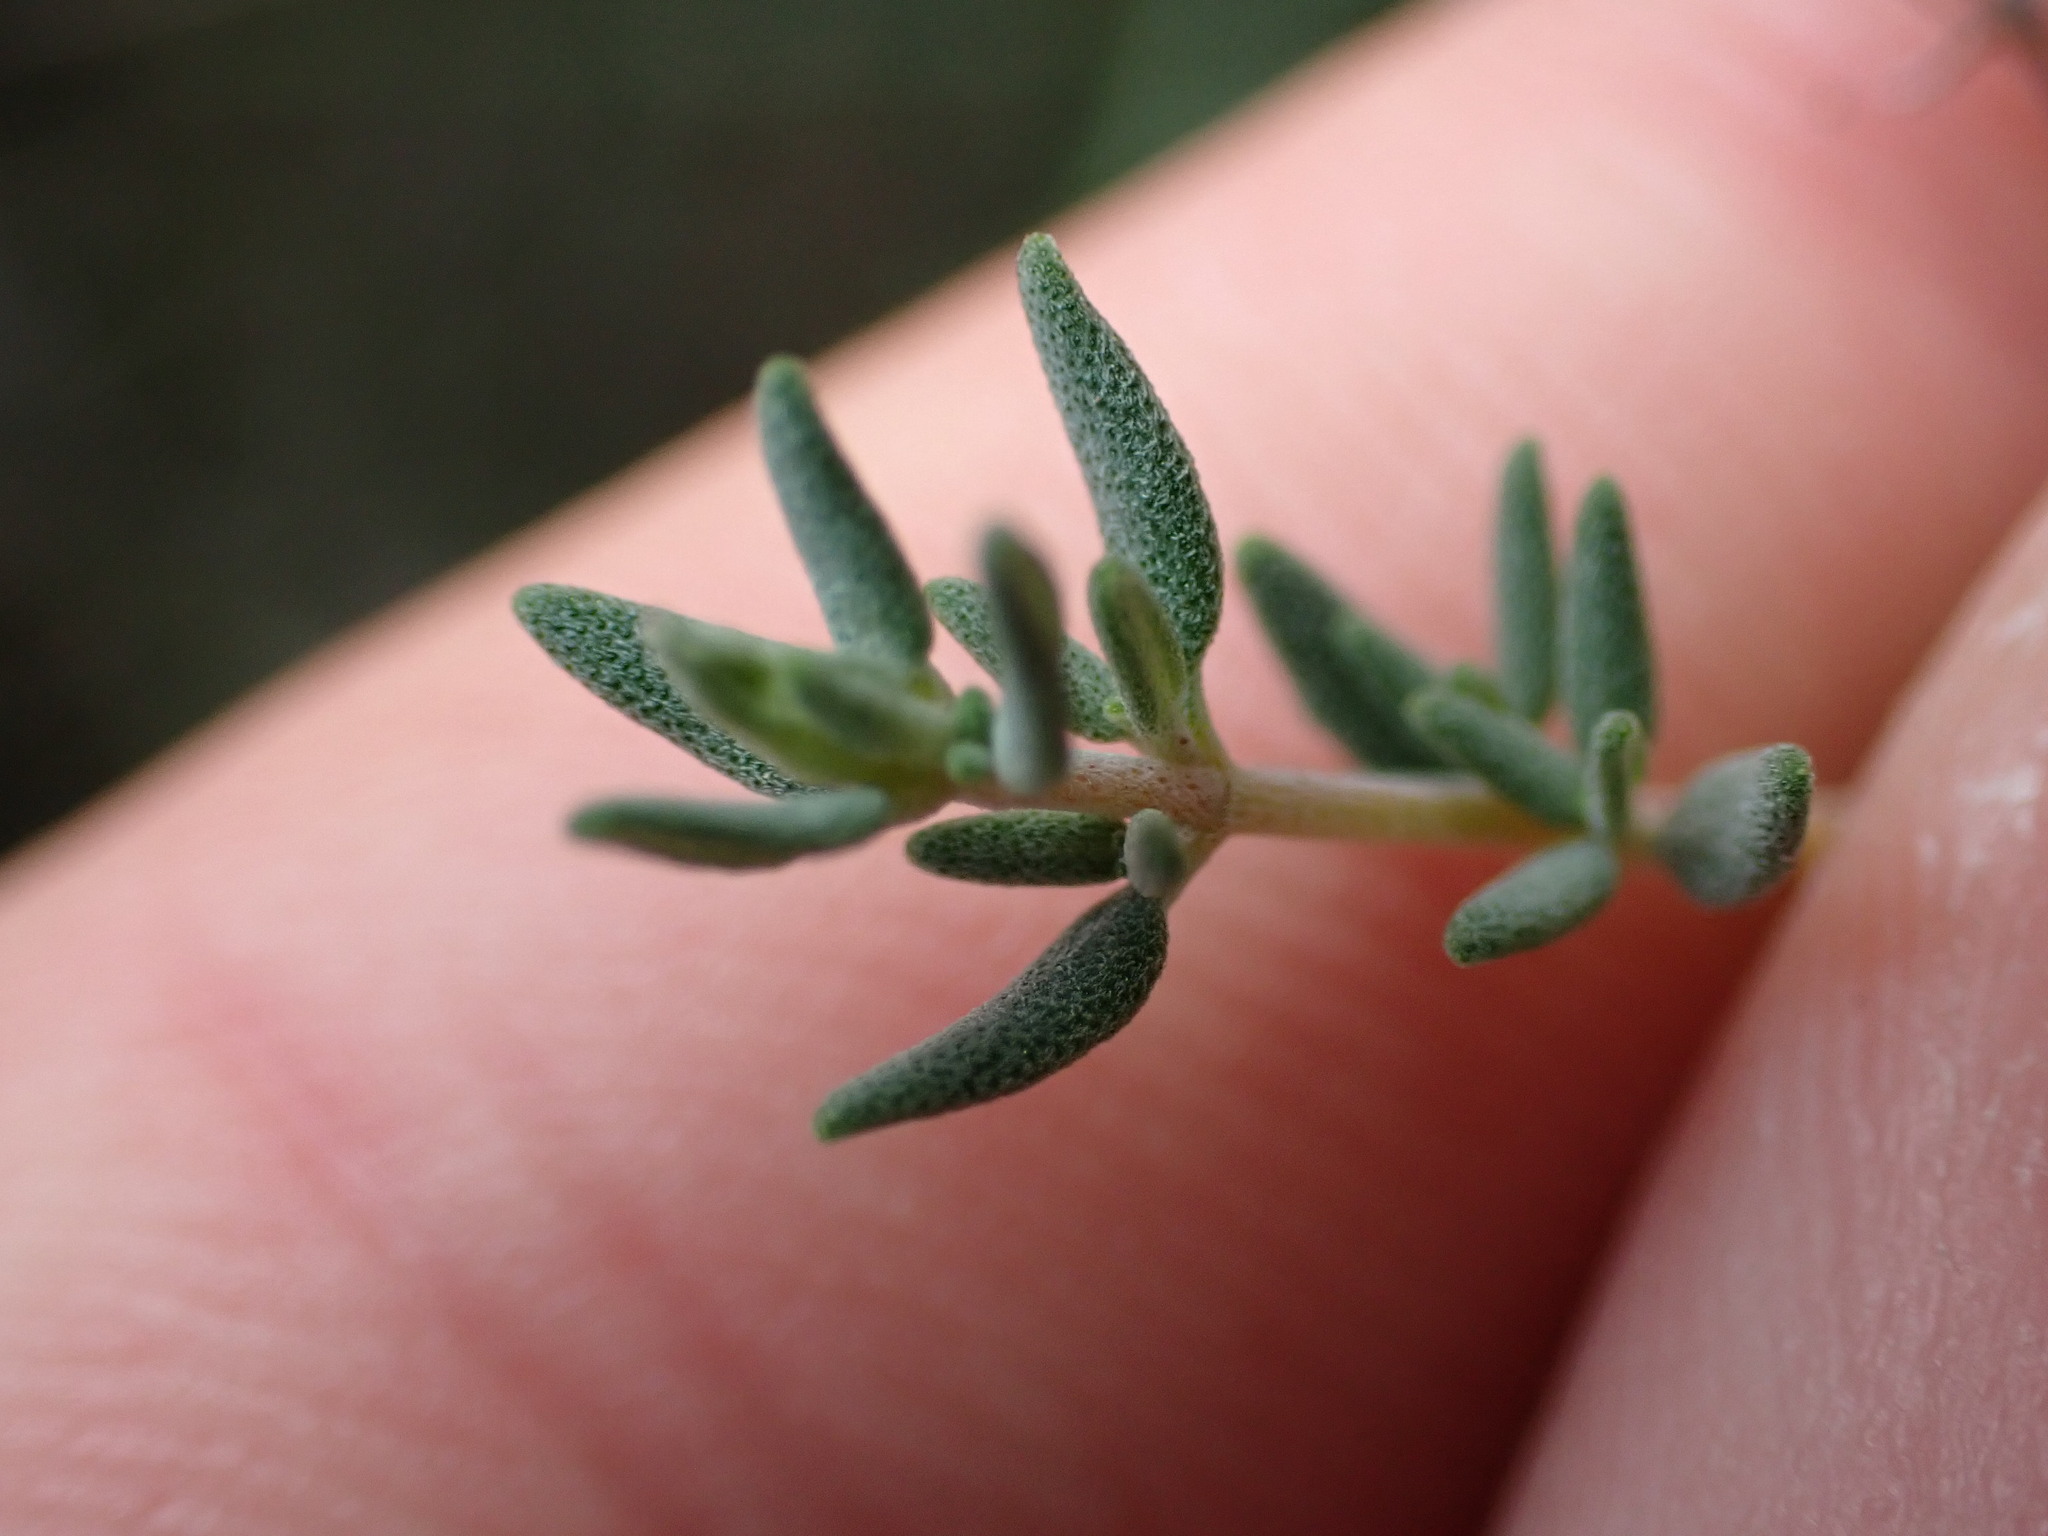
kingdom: Plantae
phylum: Tracheophyta
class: Magnoliopsida
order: Lamiales
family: Lamiaceae
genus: Thymus
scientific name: Thymus vulgaris
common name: Garden thyme
